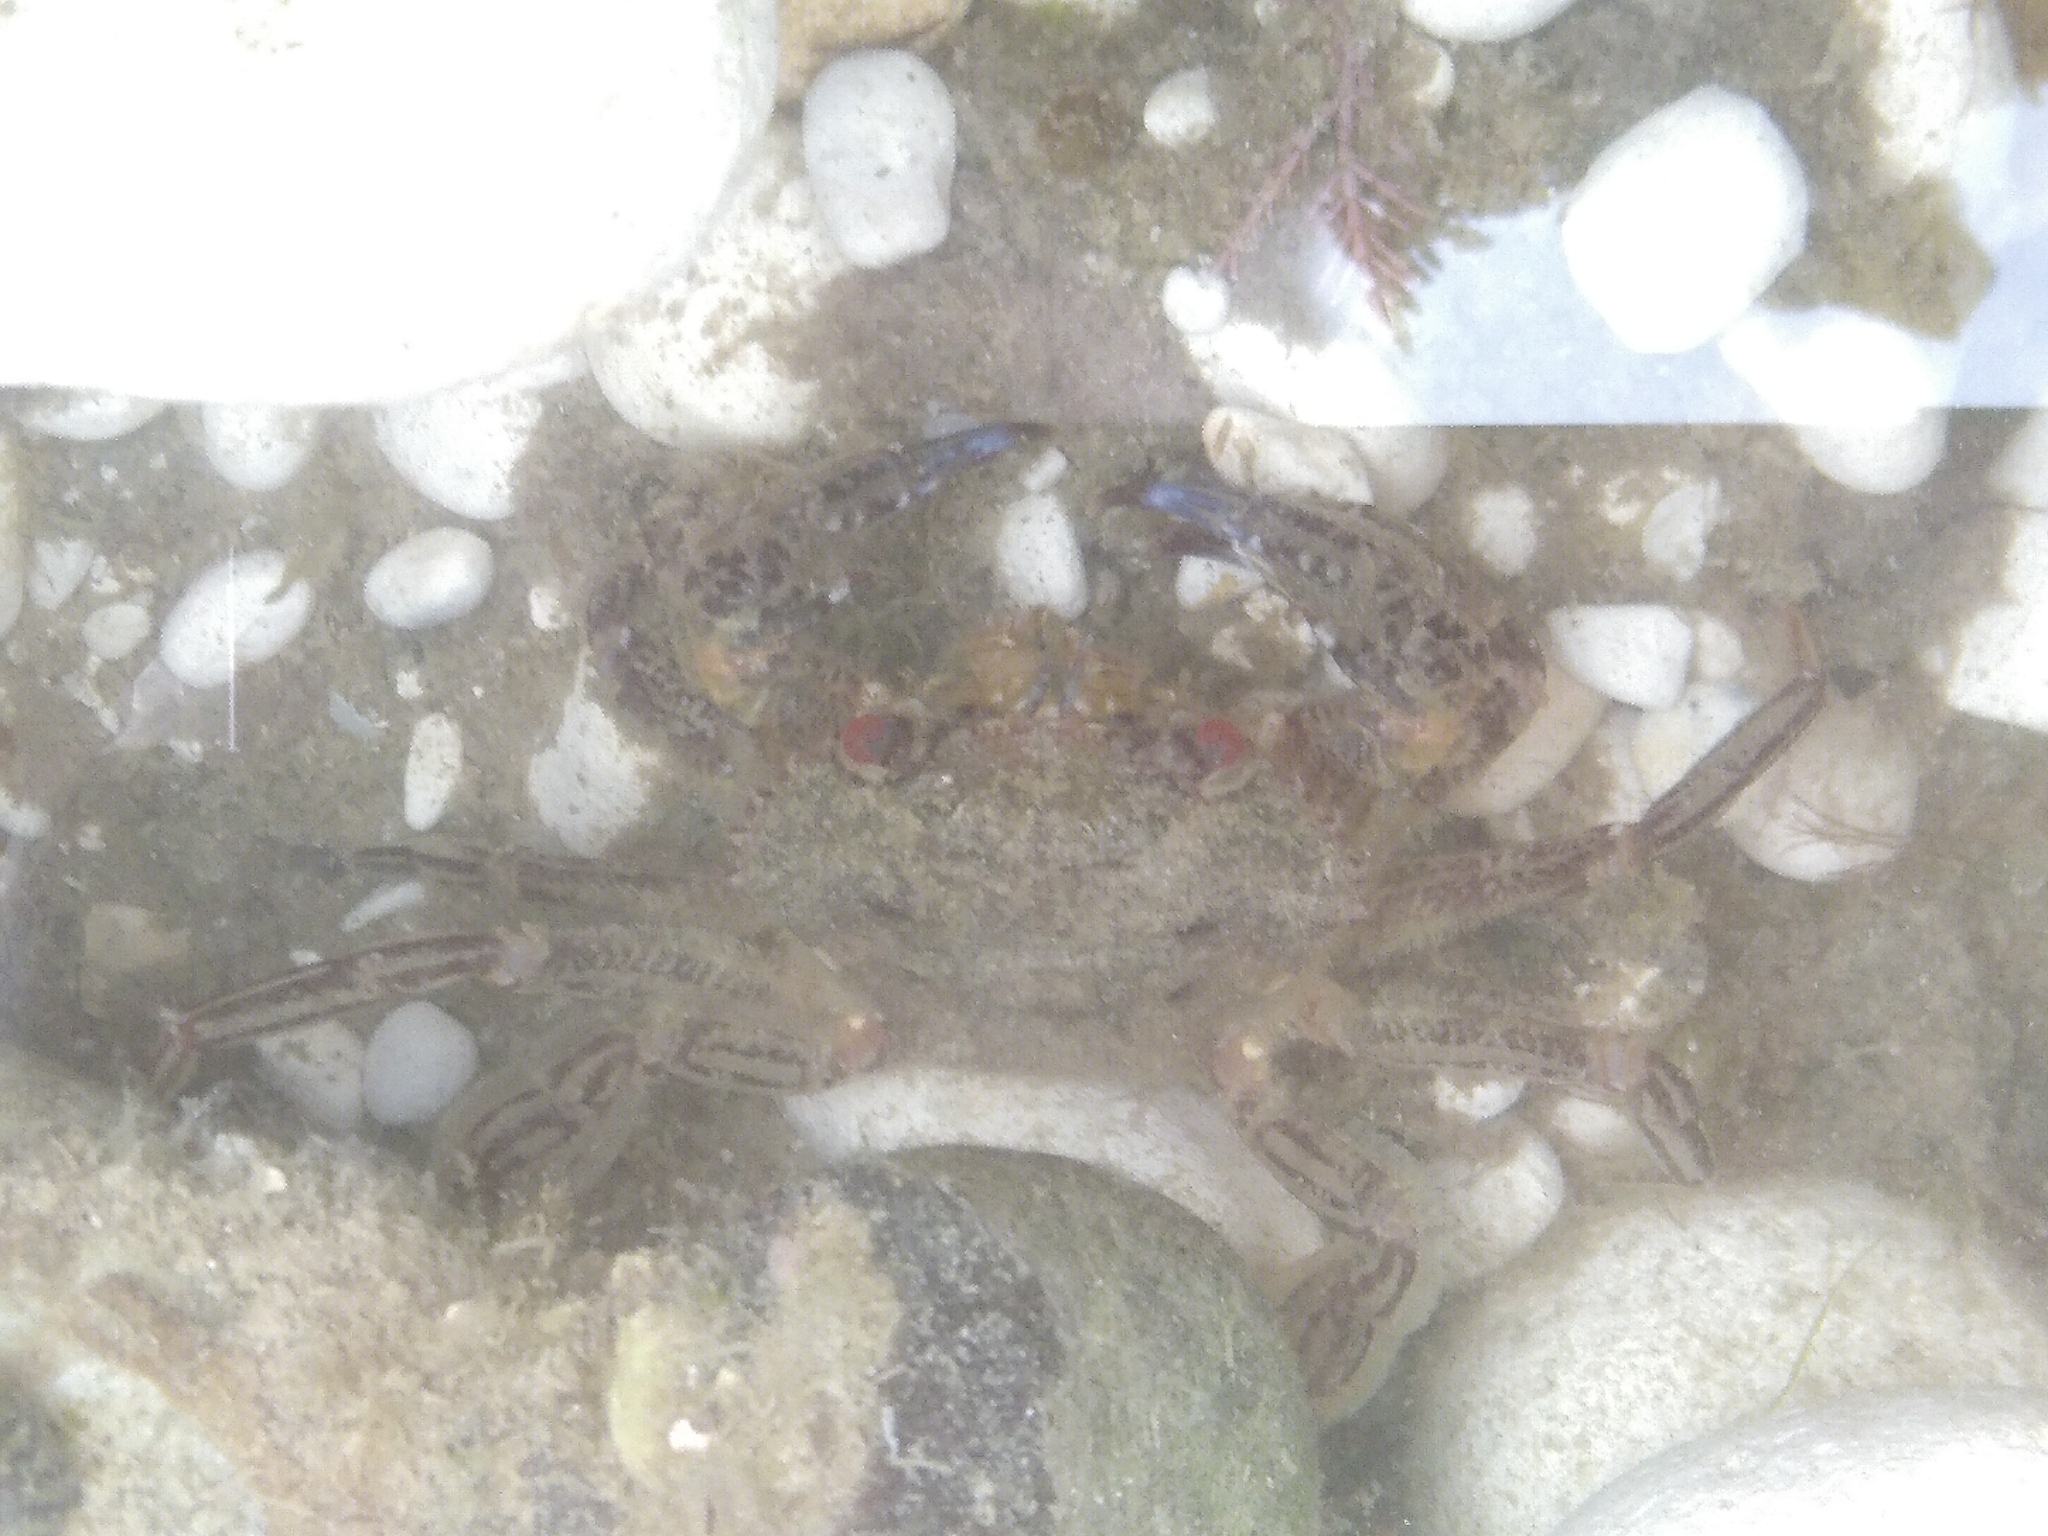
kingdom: Animalia
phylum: Arthropoda
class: Malacostraca
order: Decapoda
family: Polybiidae
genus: Necora
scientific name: Necora puber
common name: Velvet swimming crab
